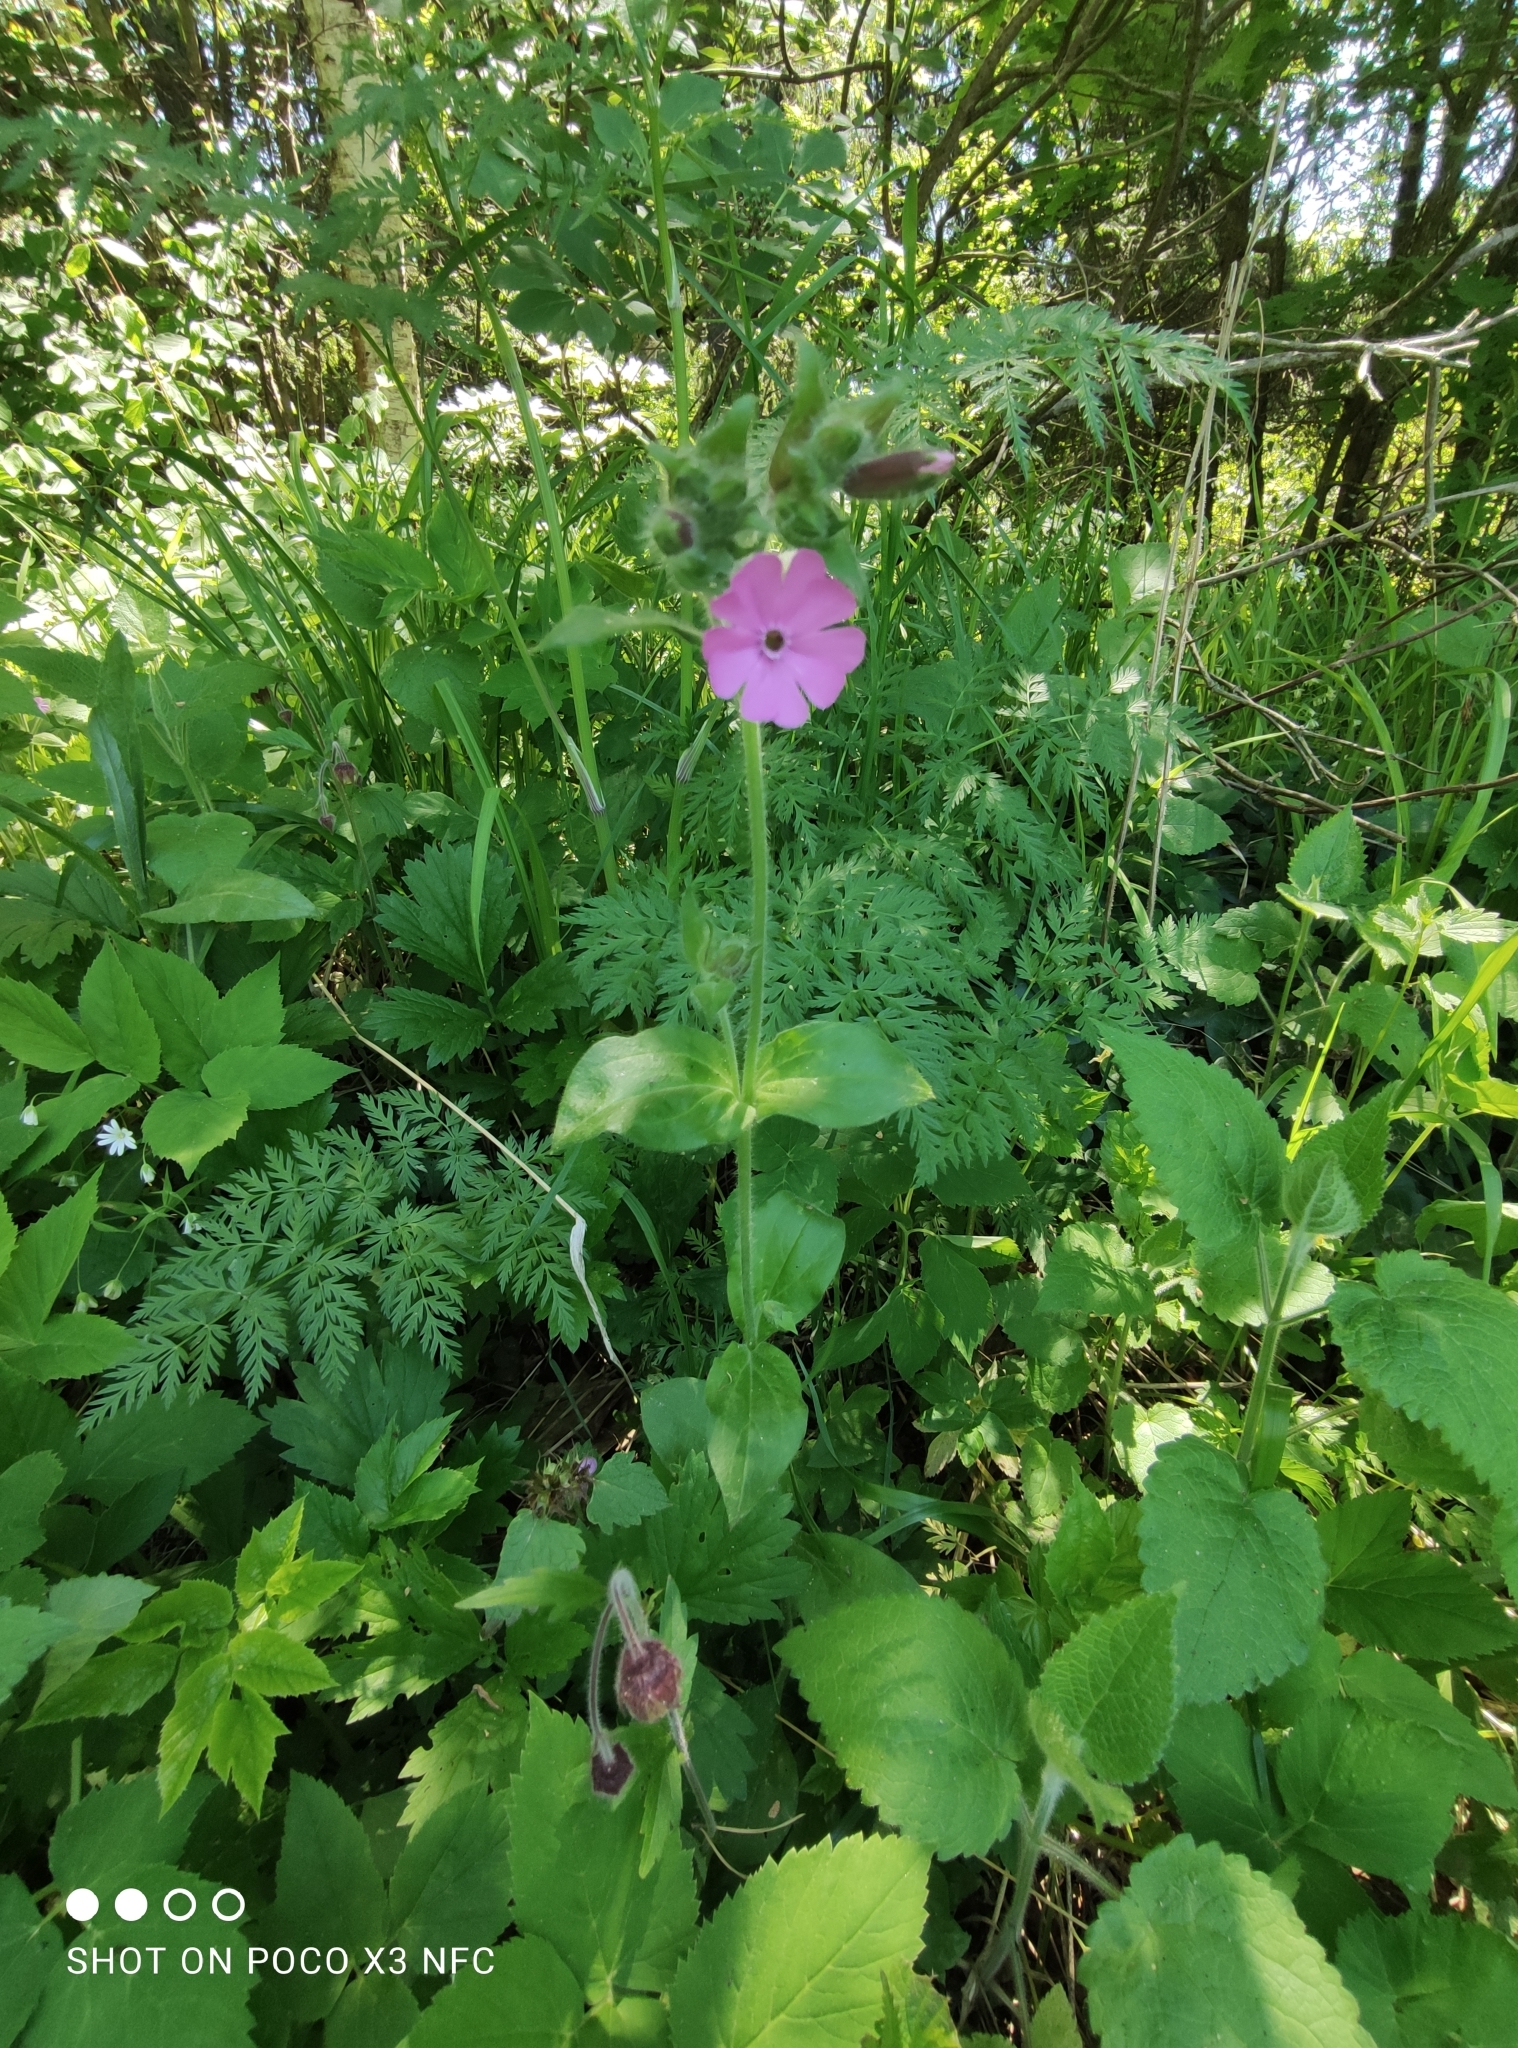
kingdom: Plantae
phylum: Tracheophyta
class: Magnoliopsida
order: Caryophyllales
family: Caryophyllaceae
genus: Silene
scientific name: Silene dioica
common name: Red campion
